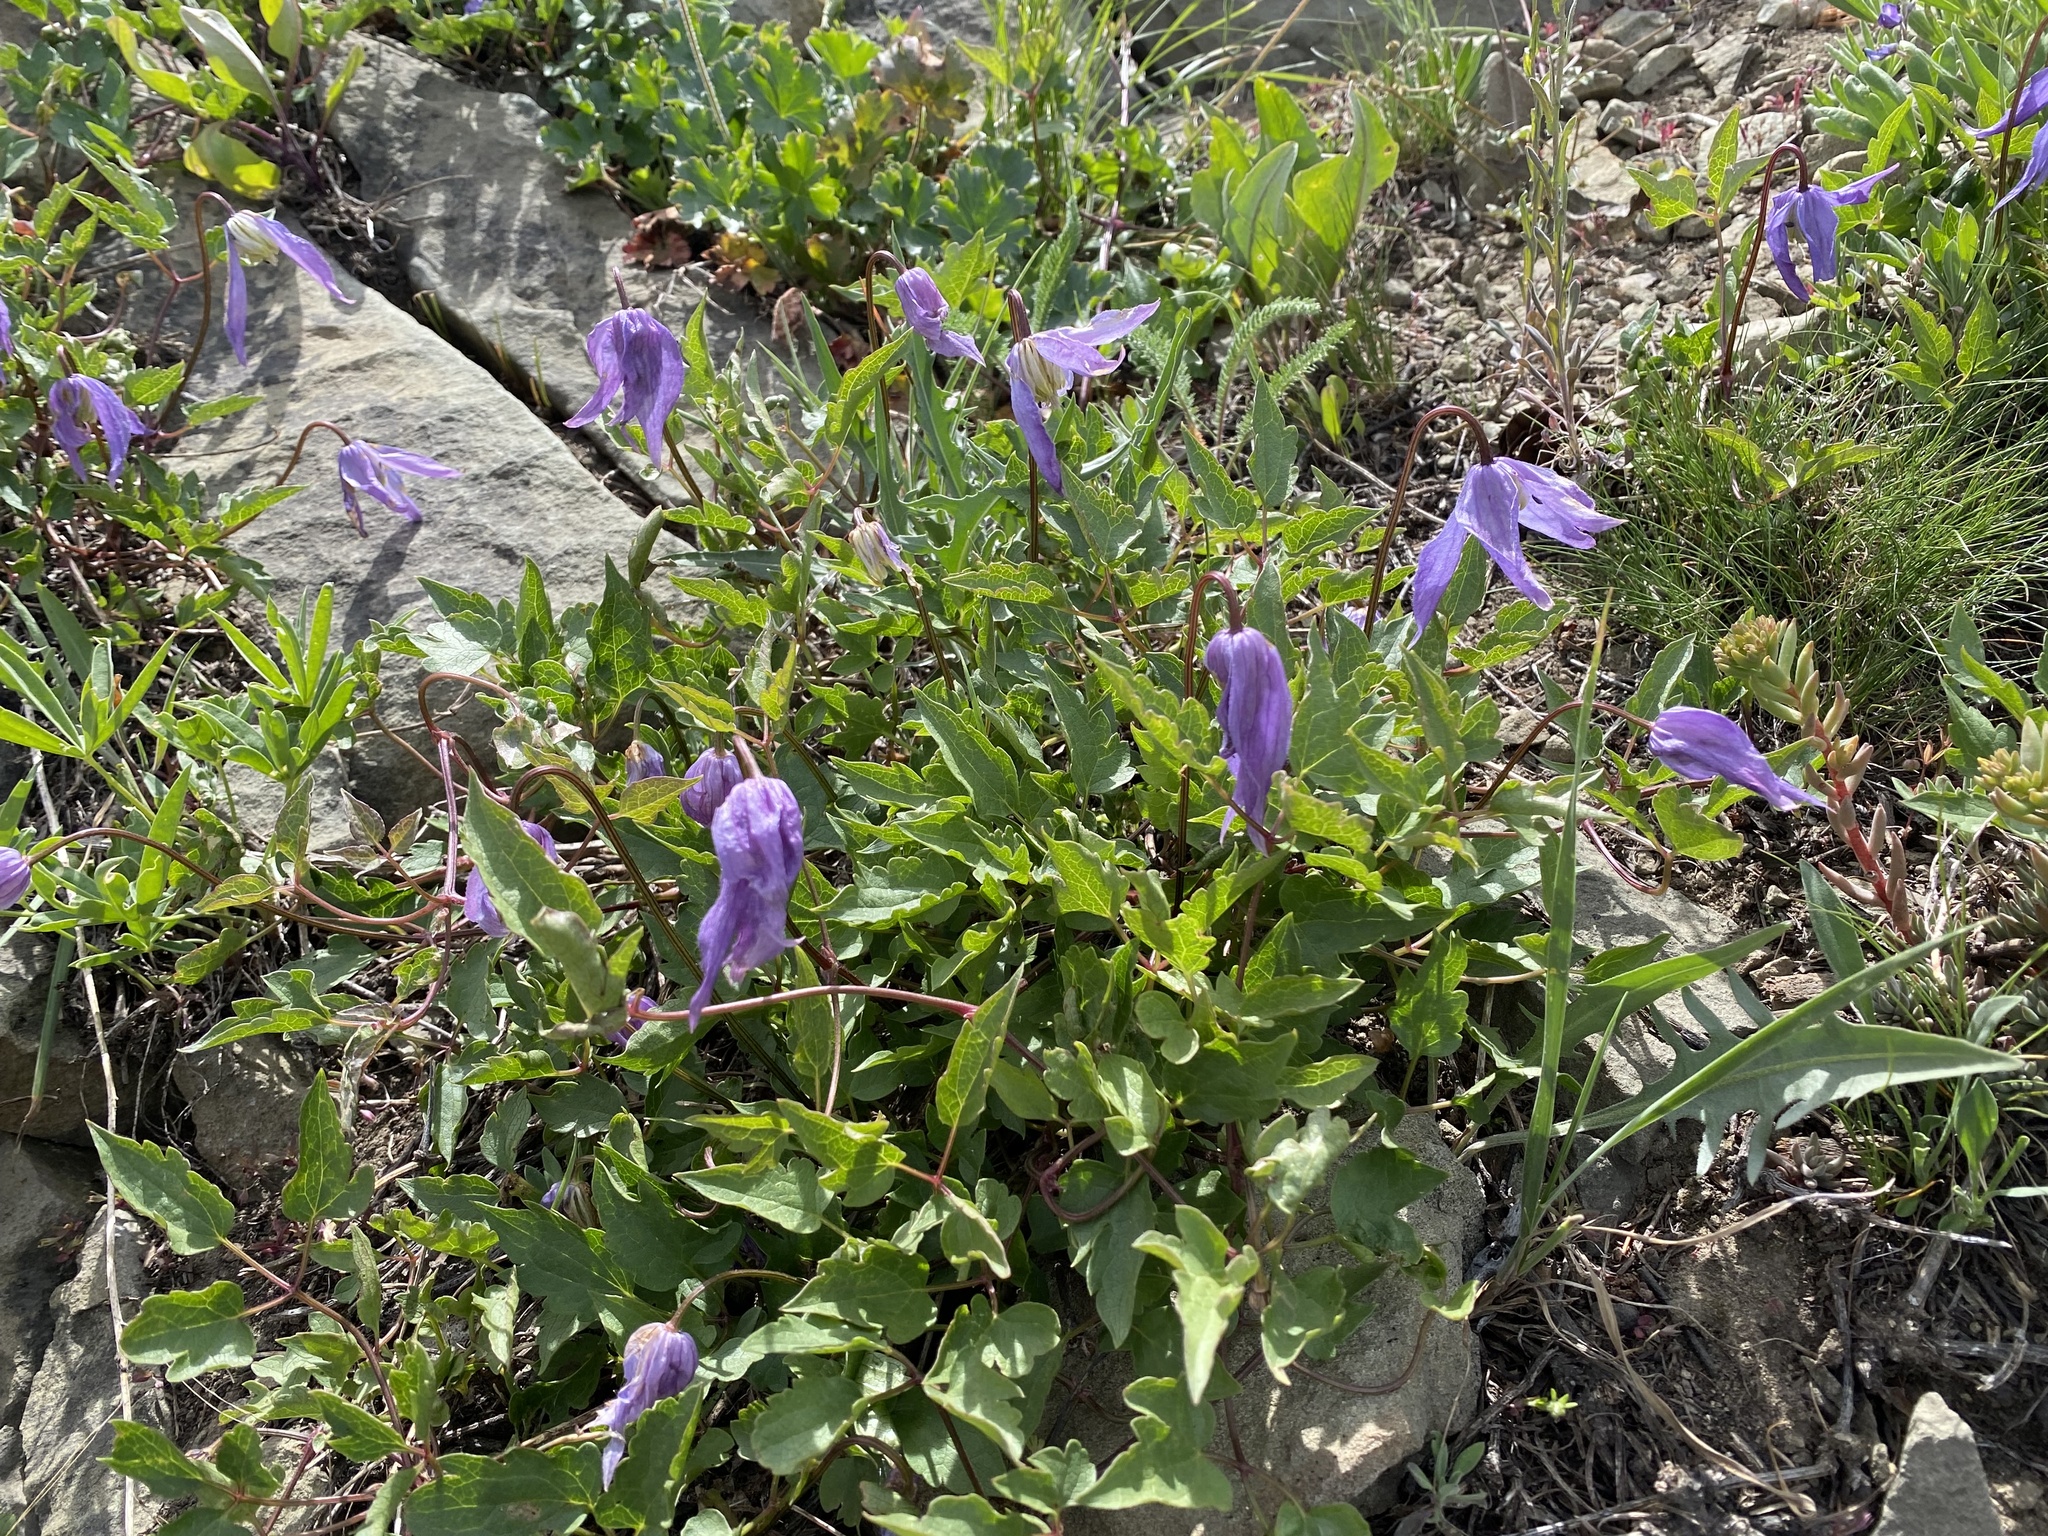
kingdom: Plantae
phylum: Tracheophyta
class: Magnoliopsida
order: Ranunculales
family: Ranunculaceae
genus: Clematis
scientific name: Clematis occidentalis
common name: Purple clematis
